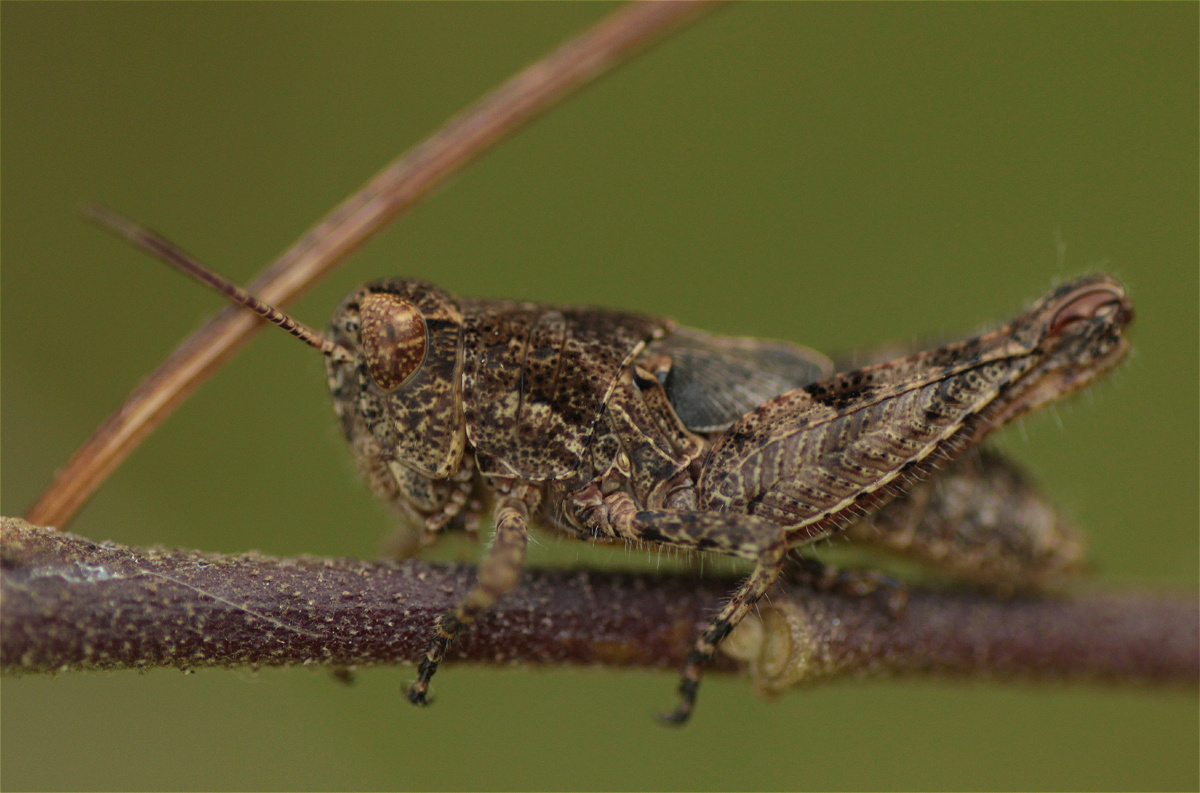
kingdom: Animalia
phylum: Arthropoda
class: Insecta
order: Orthoptera
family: Acrididae
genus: Baeacris
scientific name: Baeacris punctulata
